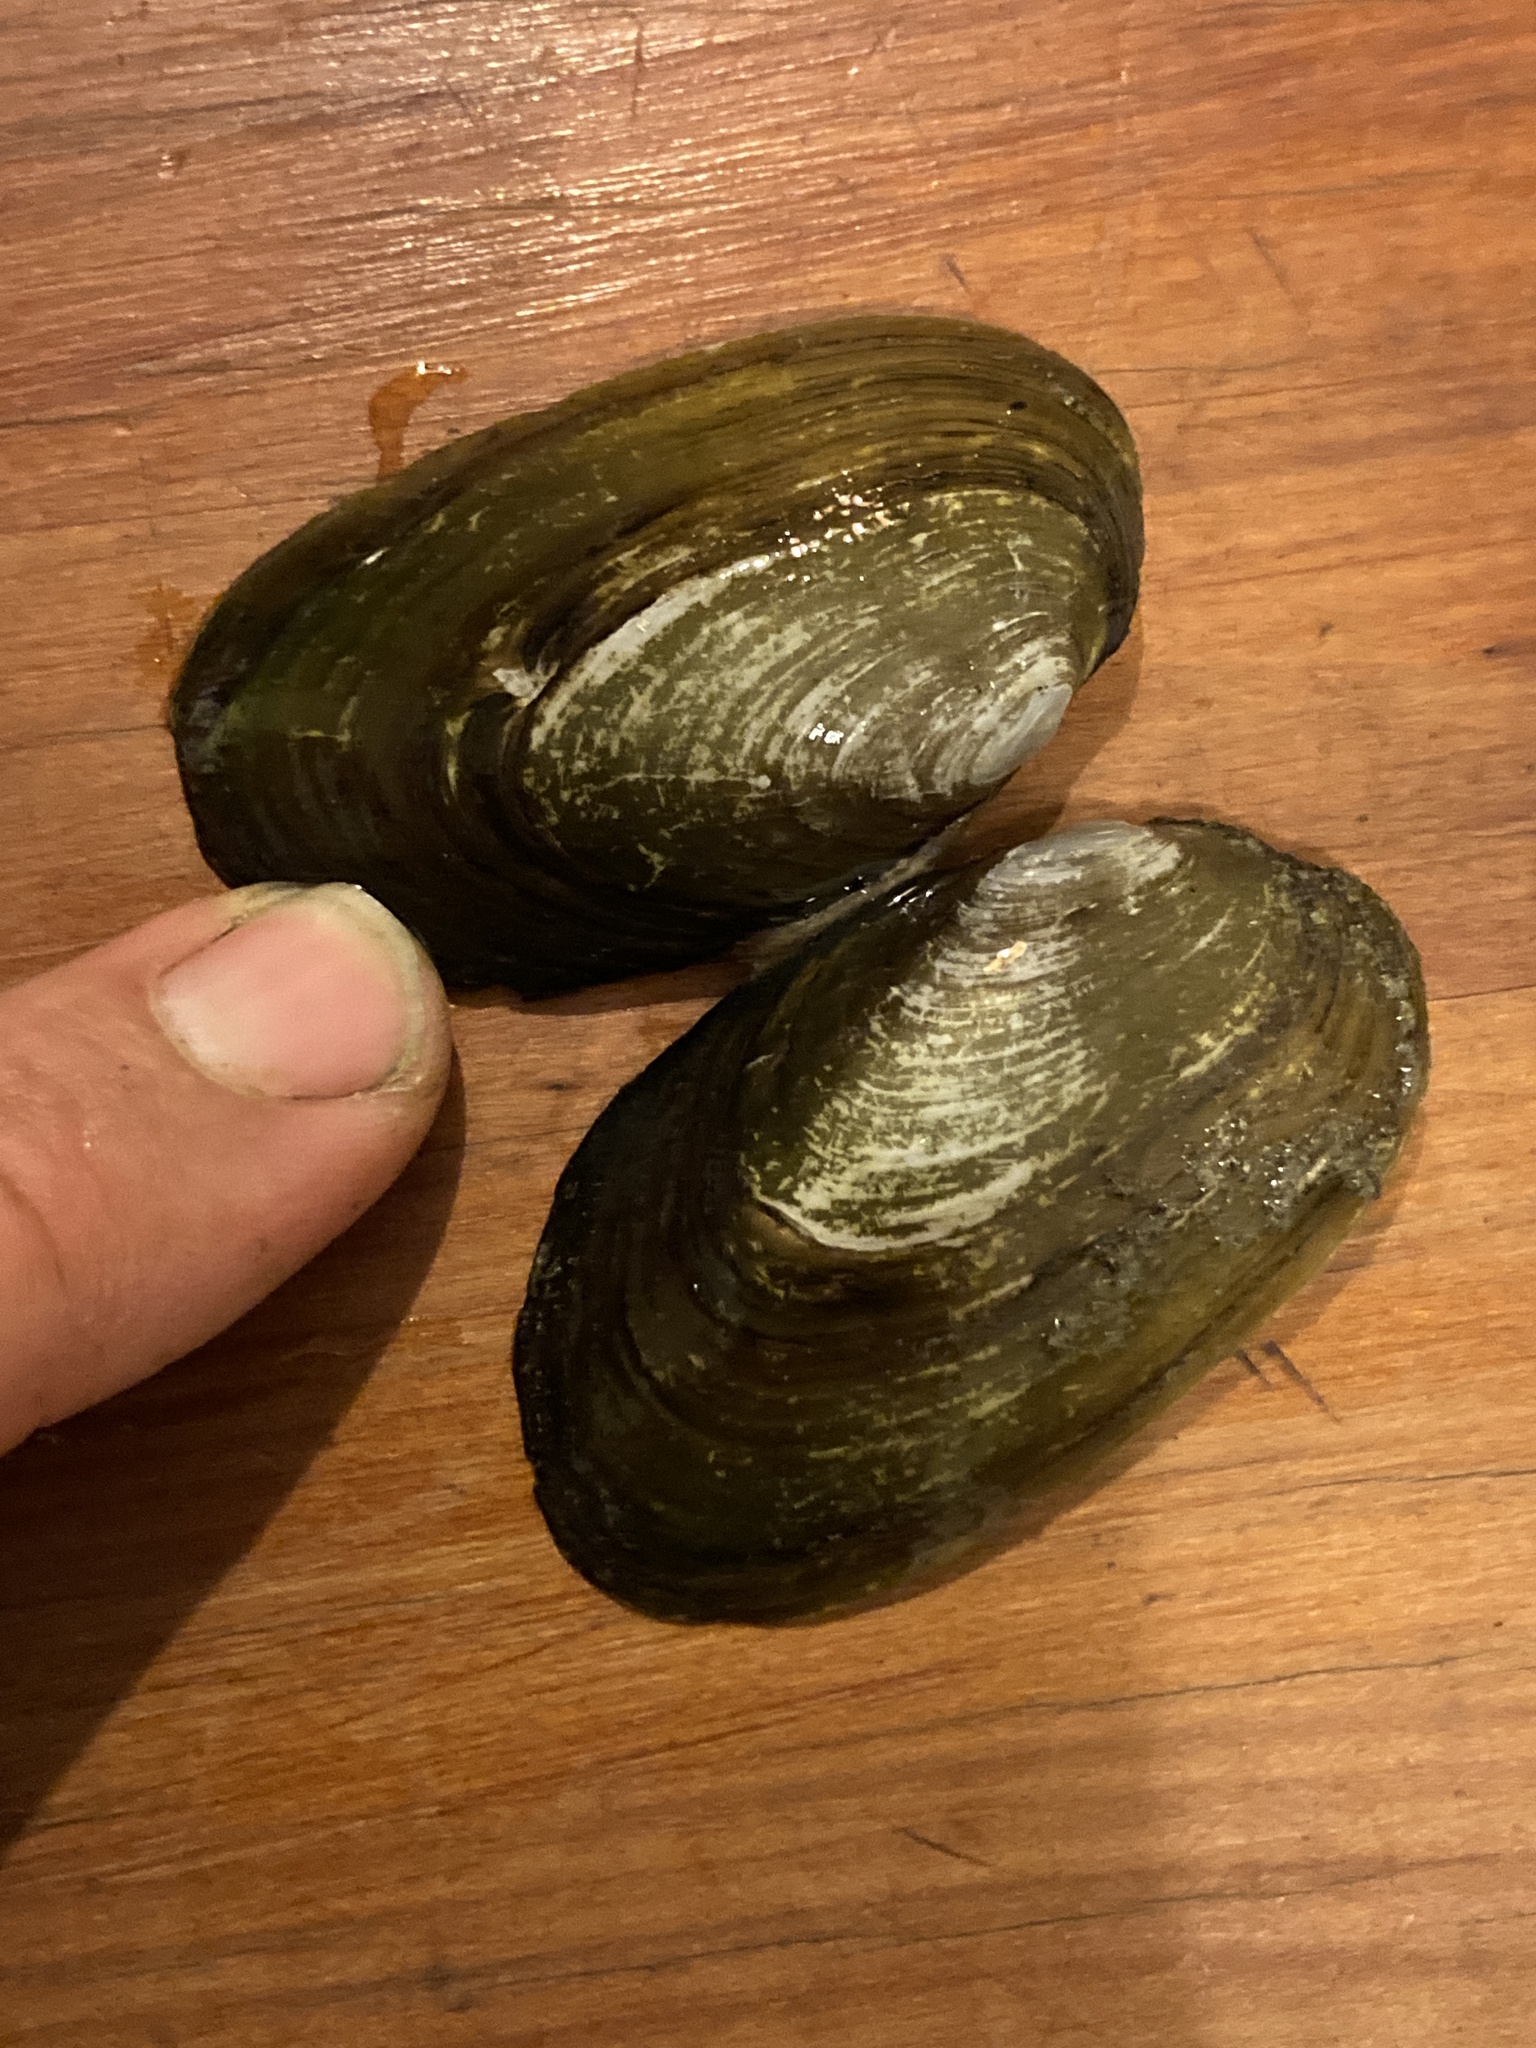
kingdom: Animalia
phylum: Mollusca
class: Bivalvia
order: Unionida
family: Hyriidae
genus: Echyridella
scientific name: Echyridella menziesii
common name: New zealand freshwater mussel
